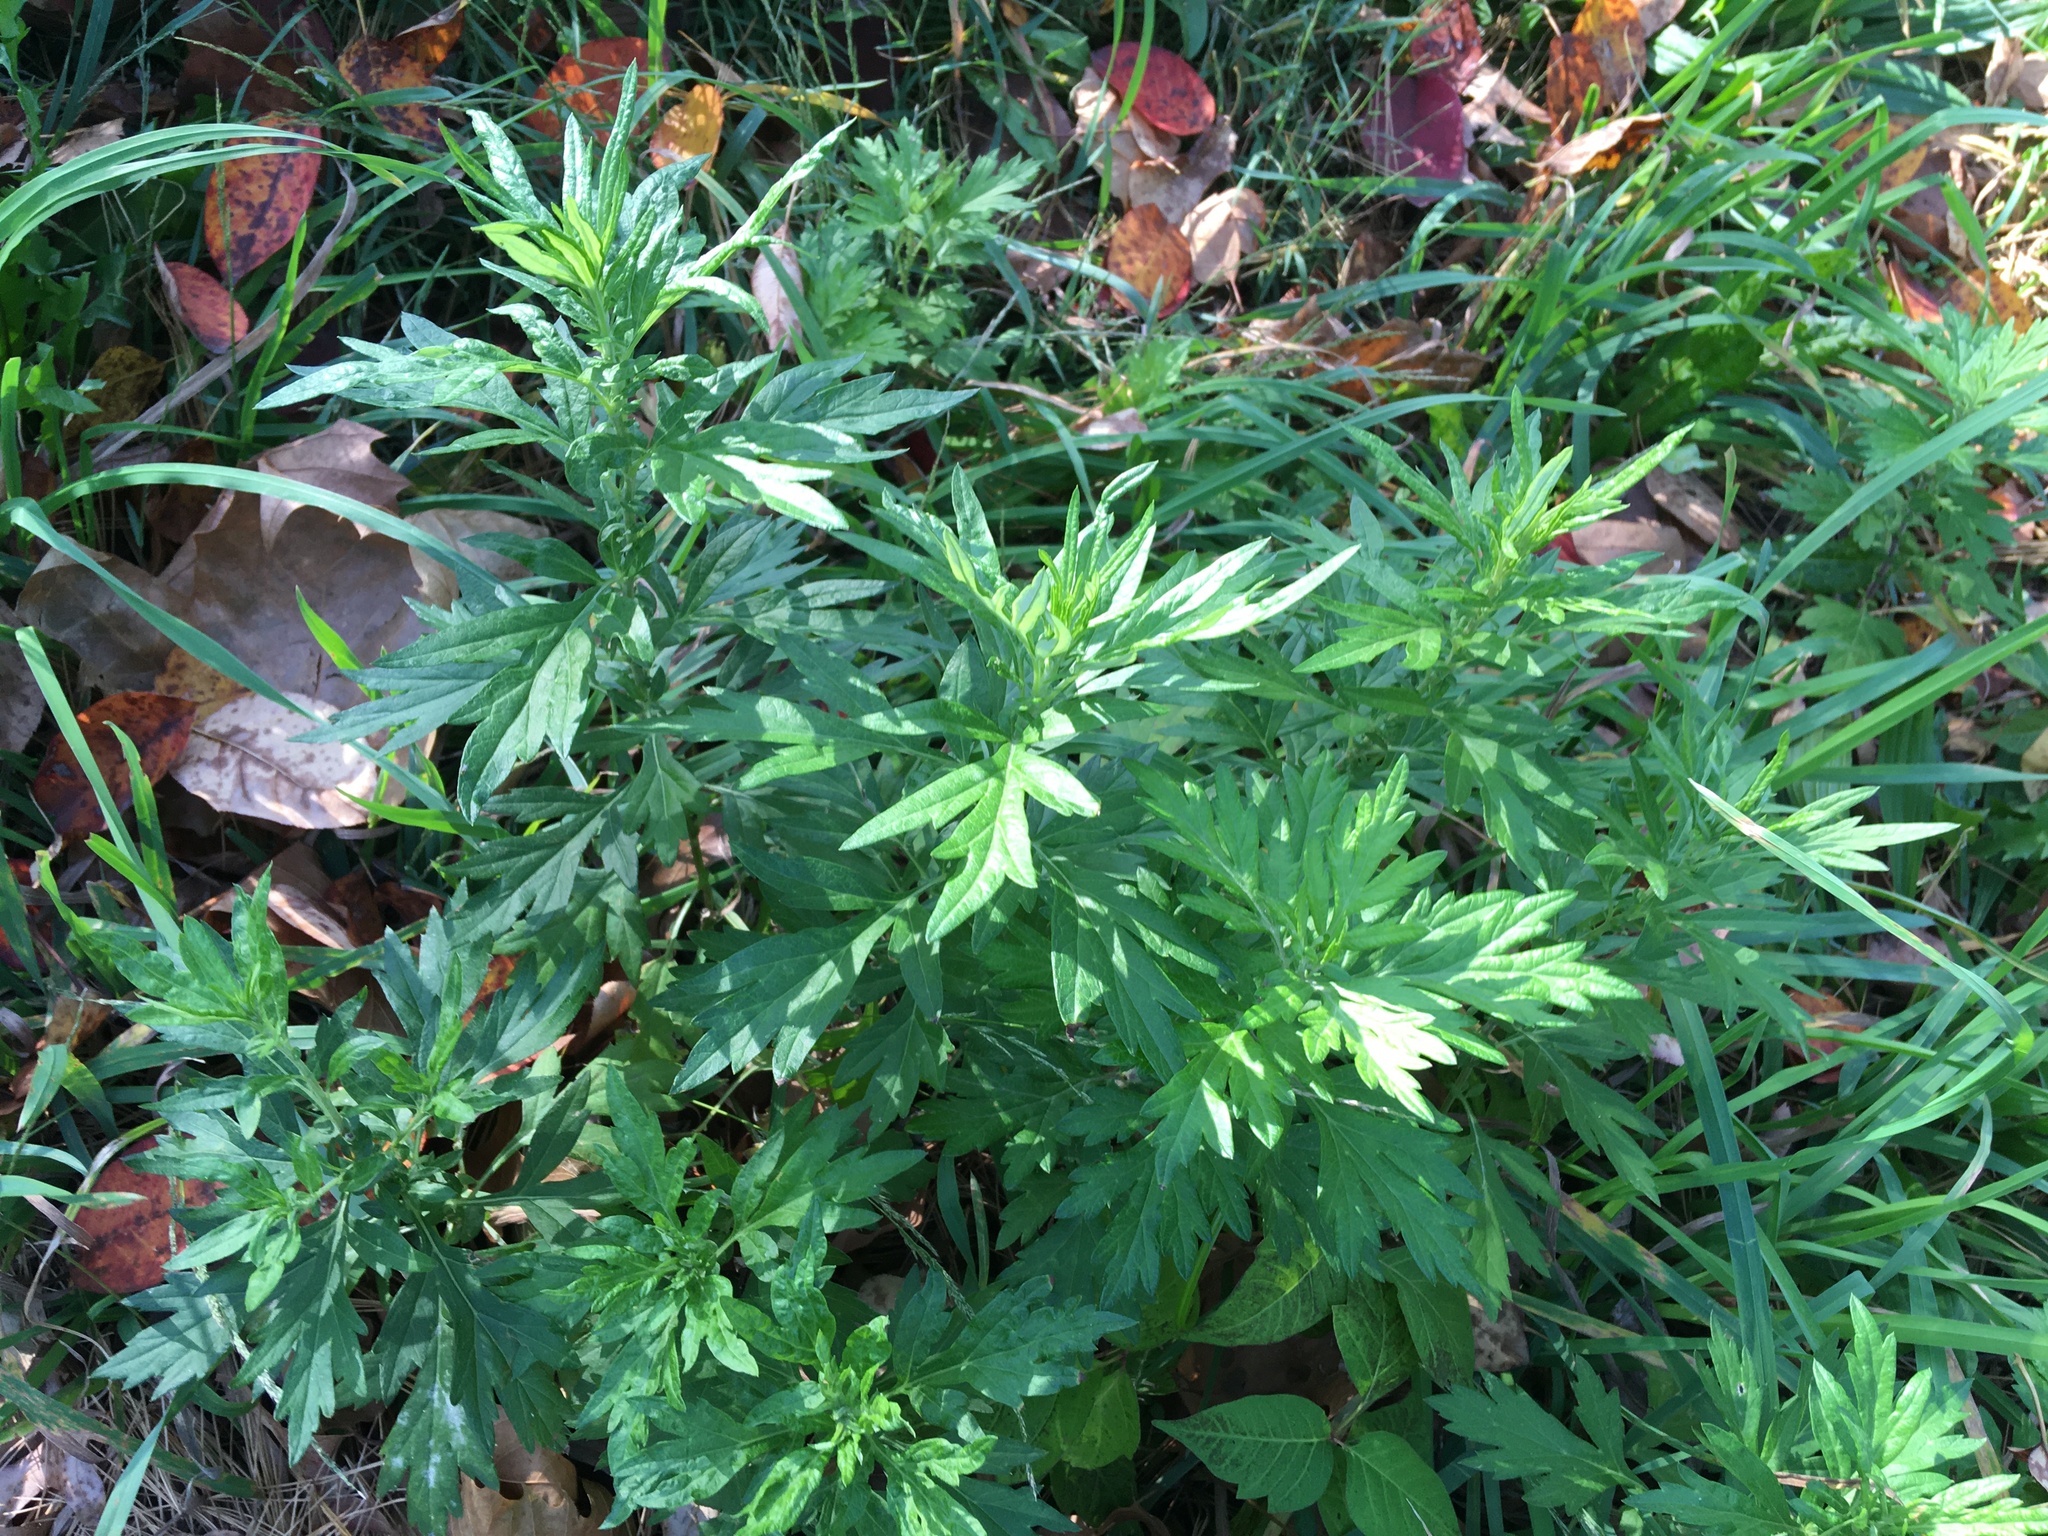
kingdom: Plantae
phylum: Tracheophyta
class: Magnoliopsida
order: Asterales
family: Asteraceae
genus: Artemisia
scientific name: Artemisia vulgaris
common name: Mugwort
